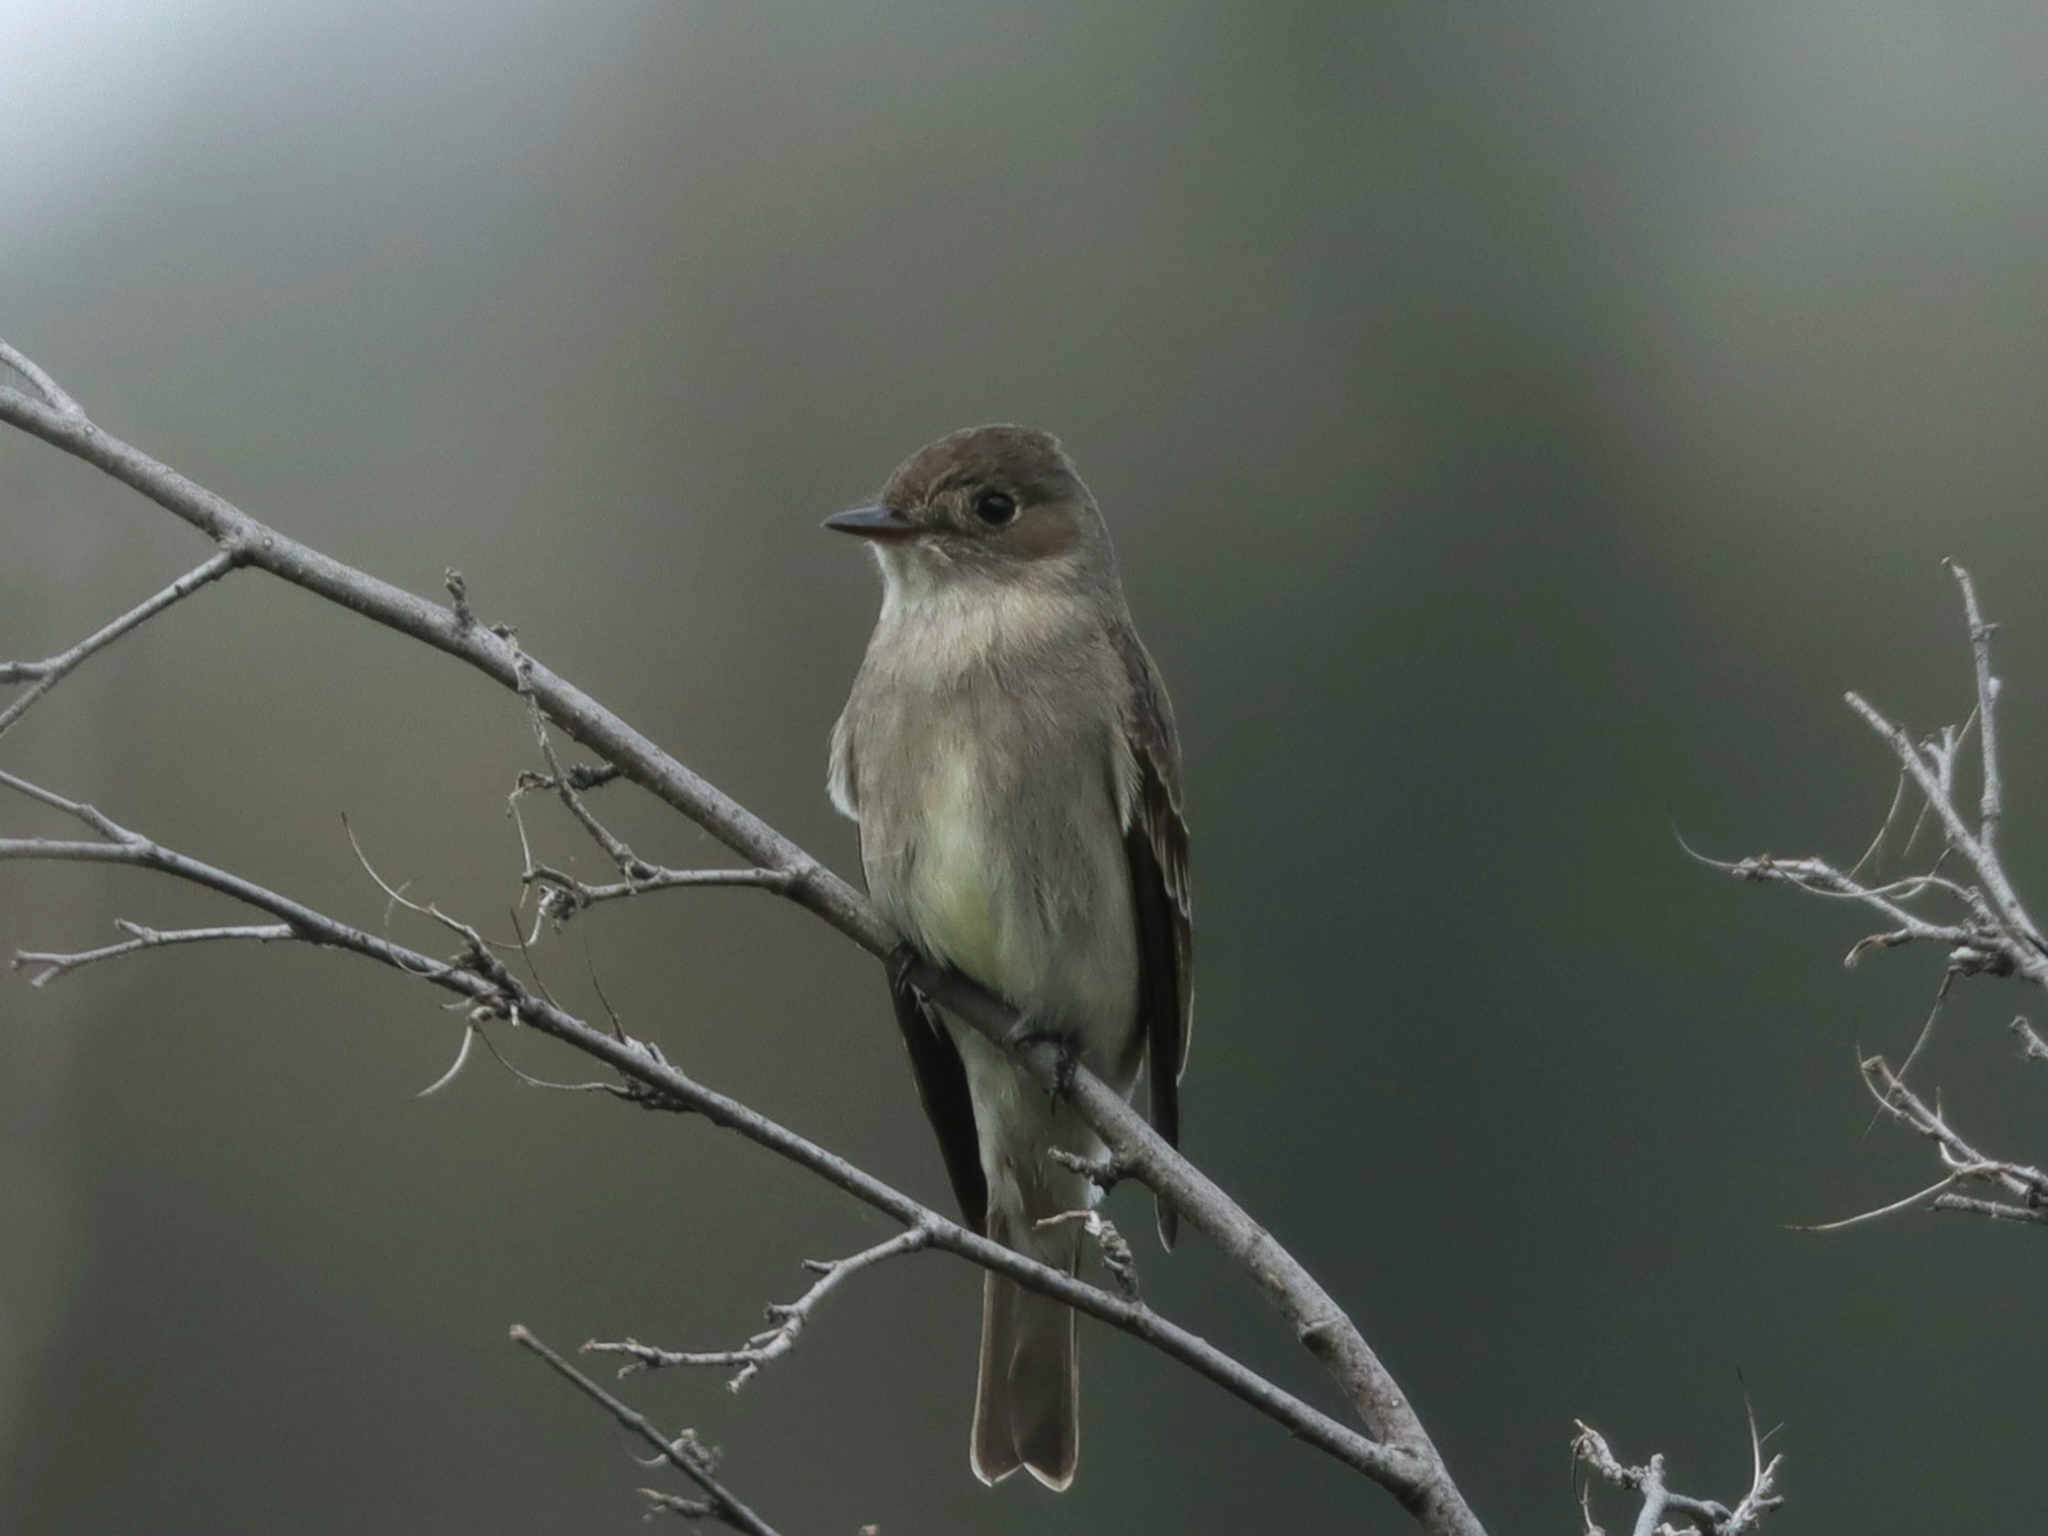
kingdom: Animalia
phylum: Chordata
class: Aves
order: Passeriformes
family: Tyrannidae
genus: Contopus
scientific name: Contopus sordidulus
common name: Western wood-pewee
